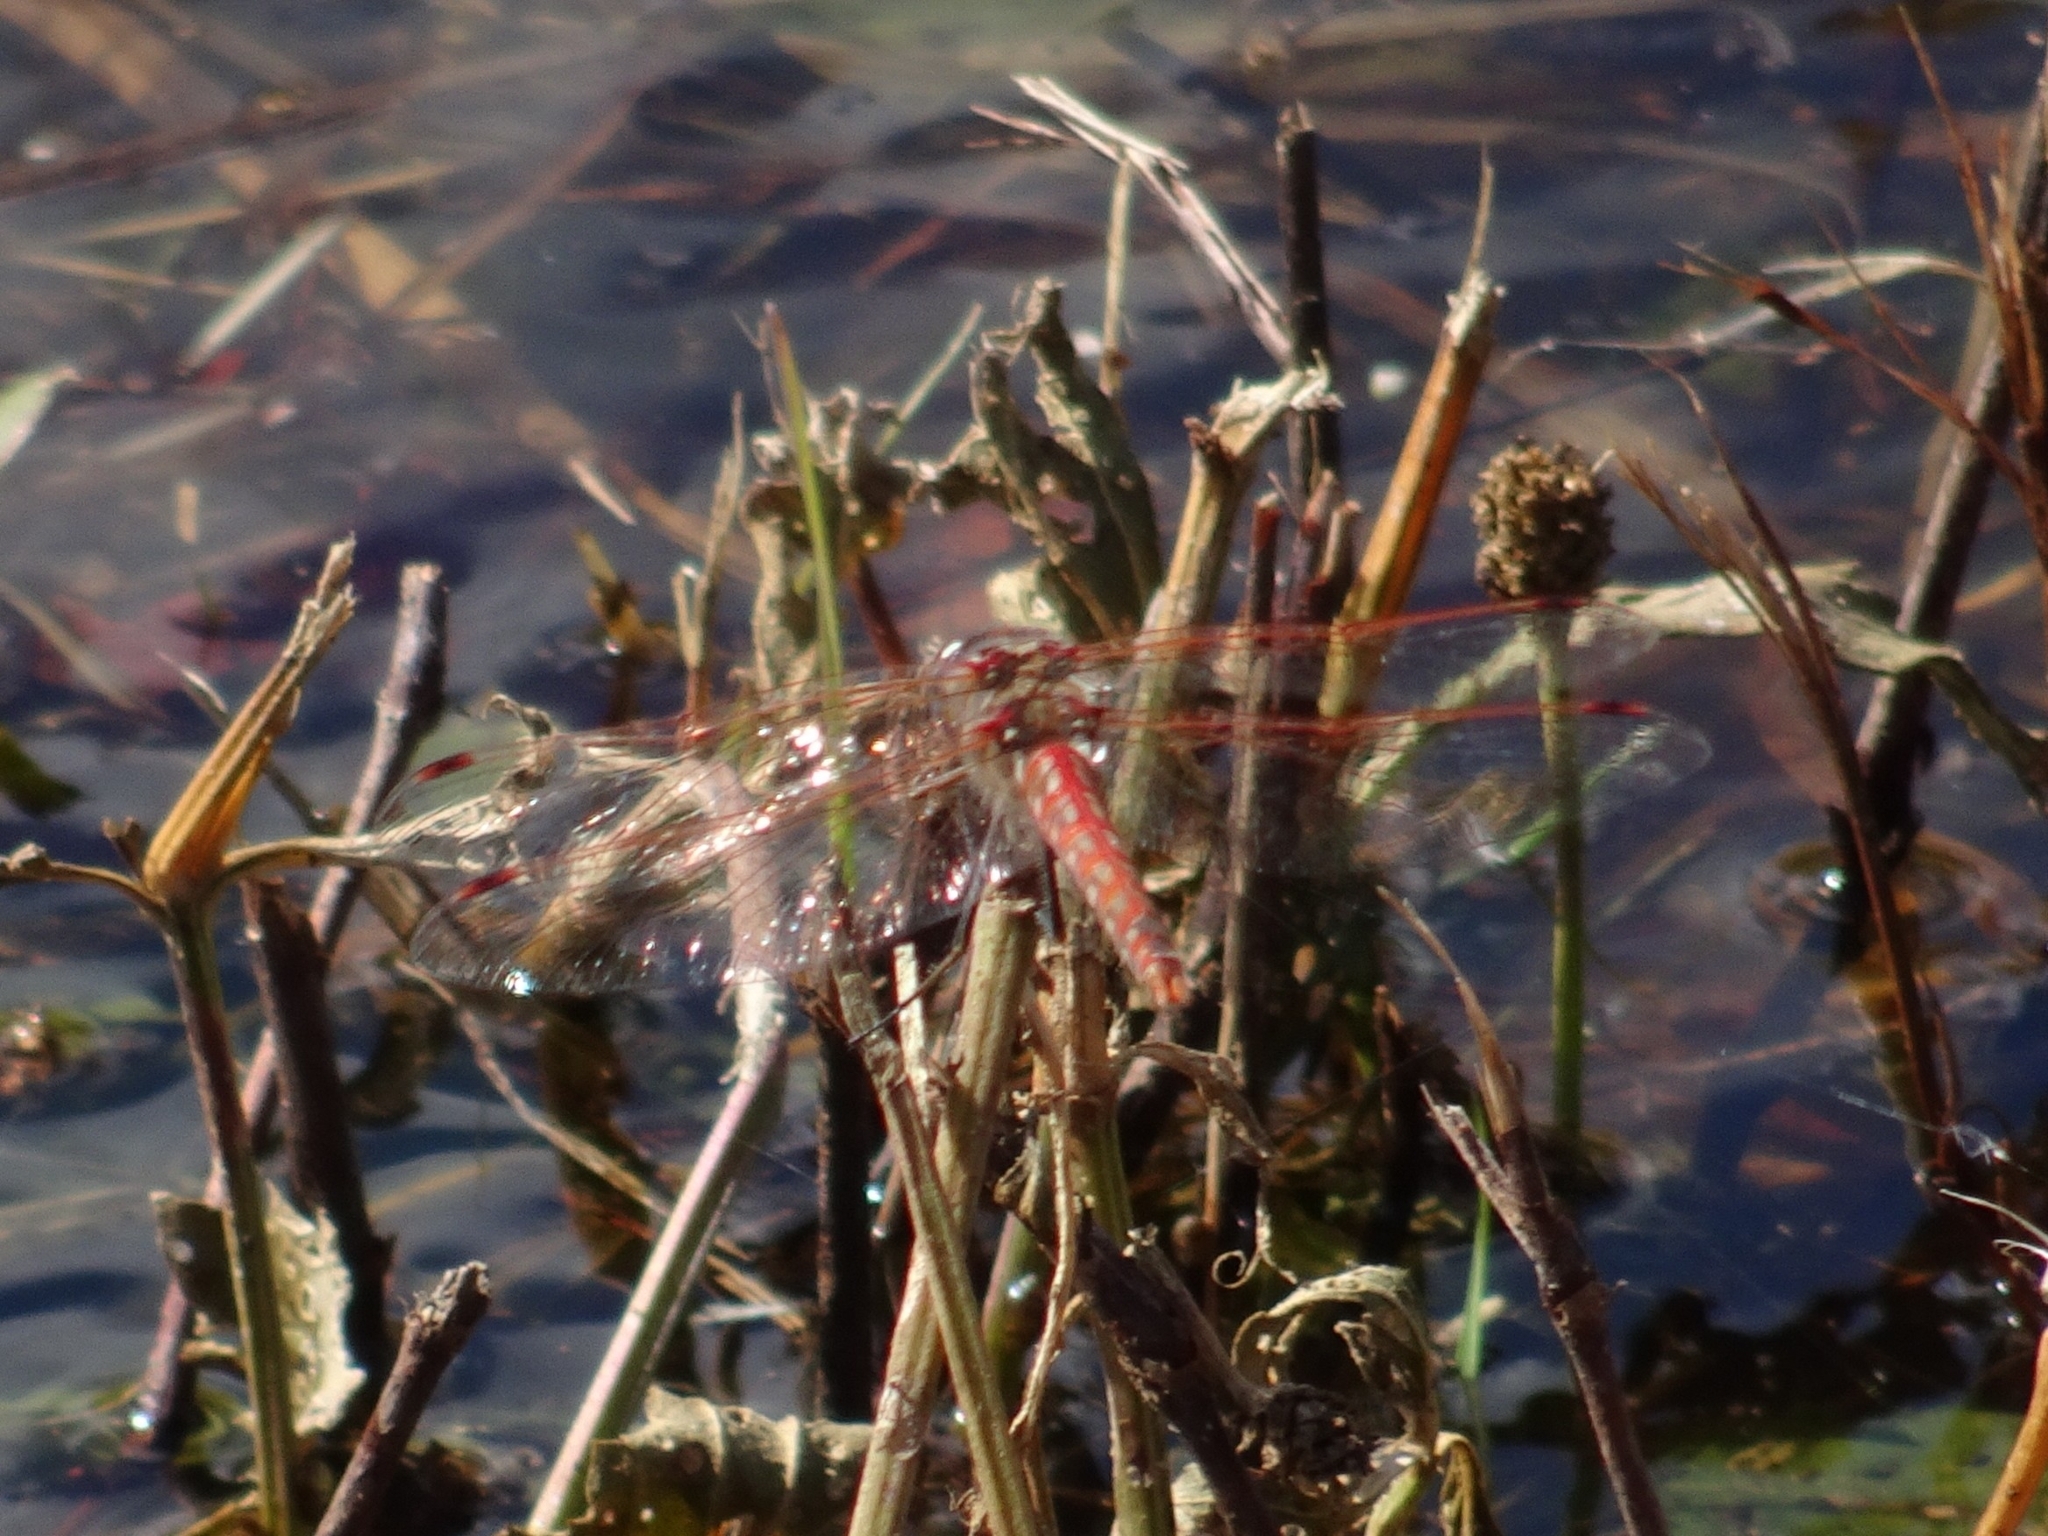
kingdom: Animalia
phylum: Arthropoda
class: Insecta
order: Odonata
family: Libellulidae
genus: Sympetrum
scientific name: Sympetrum corruptum
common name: Variegated meadowhawk
